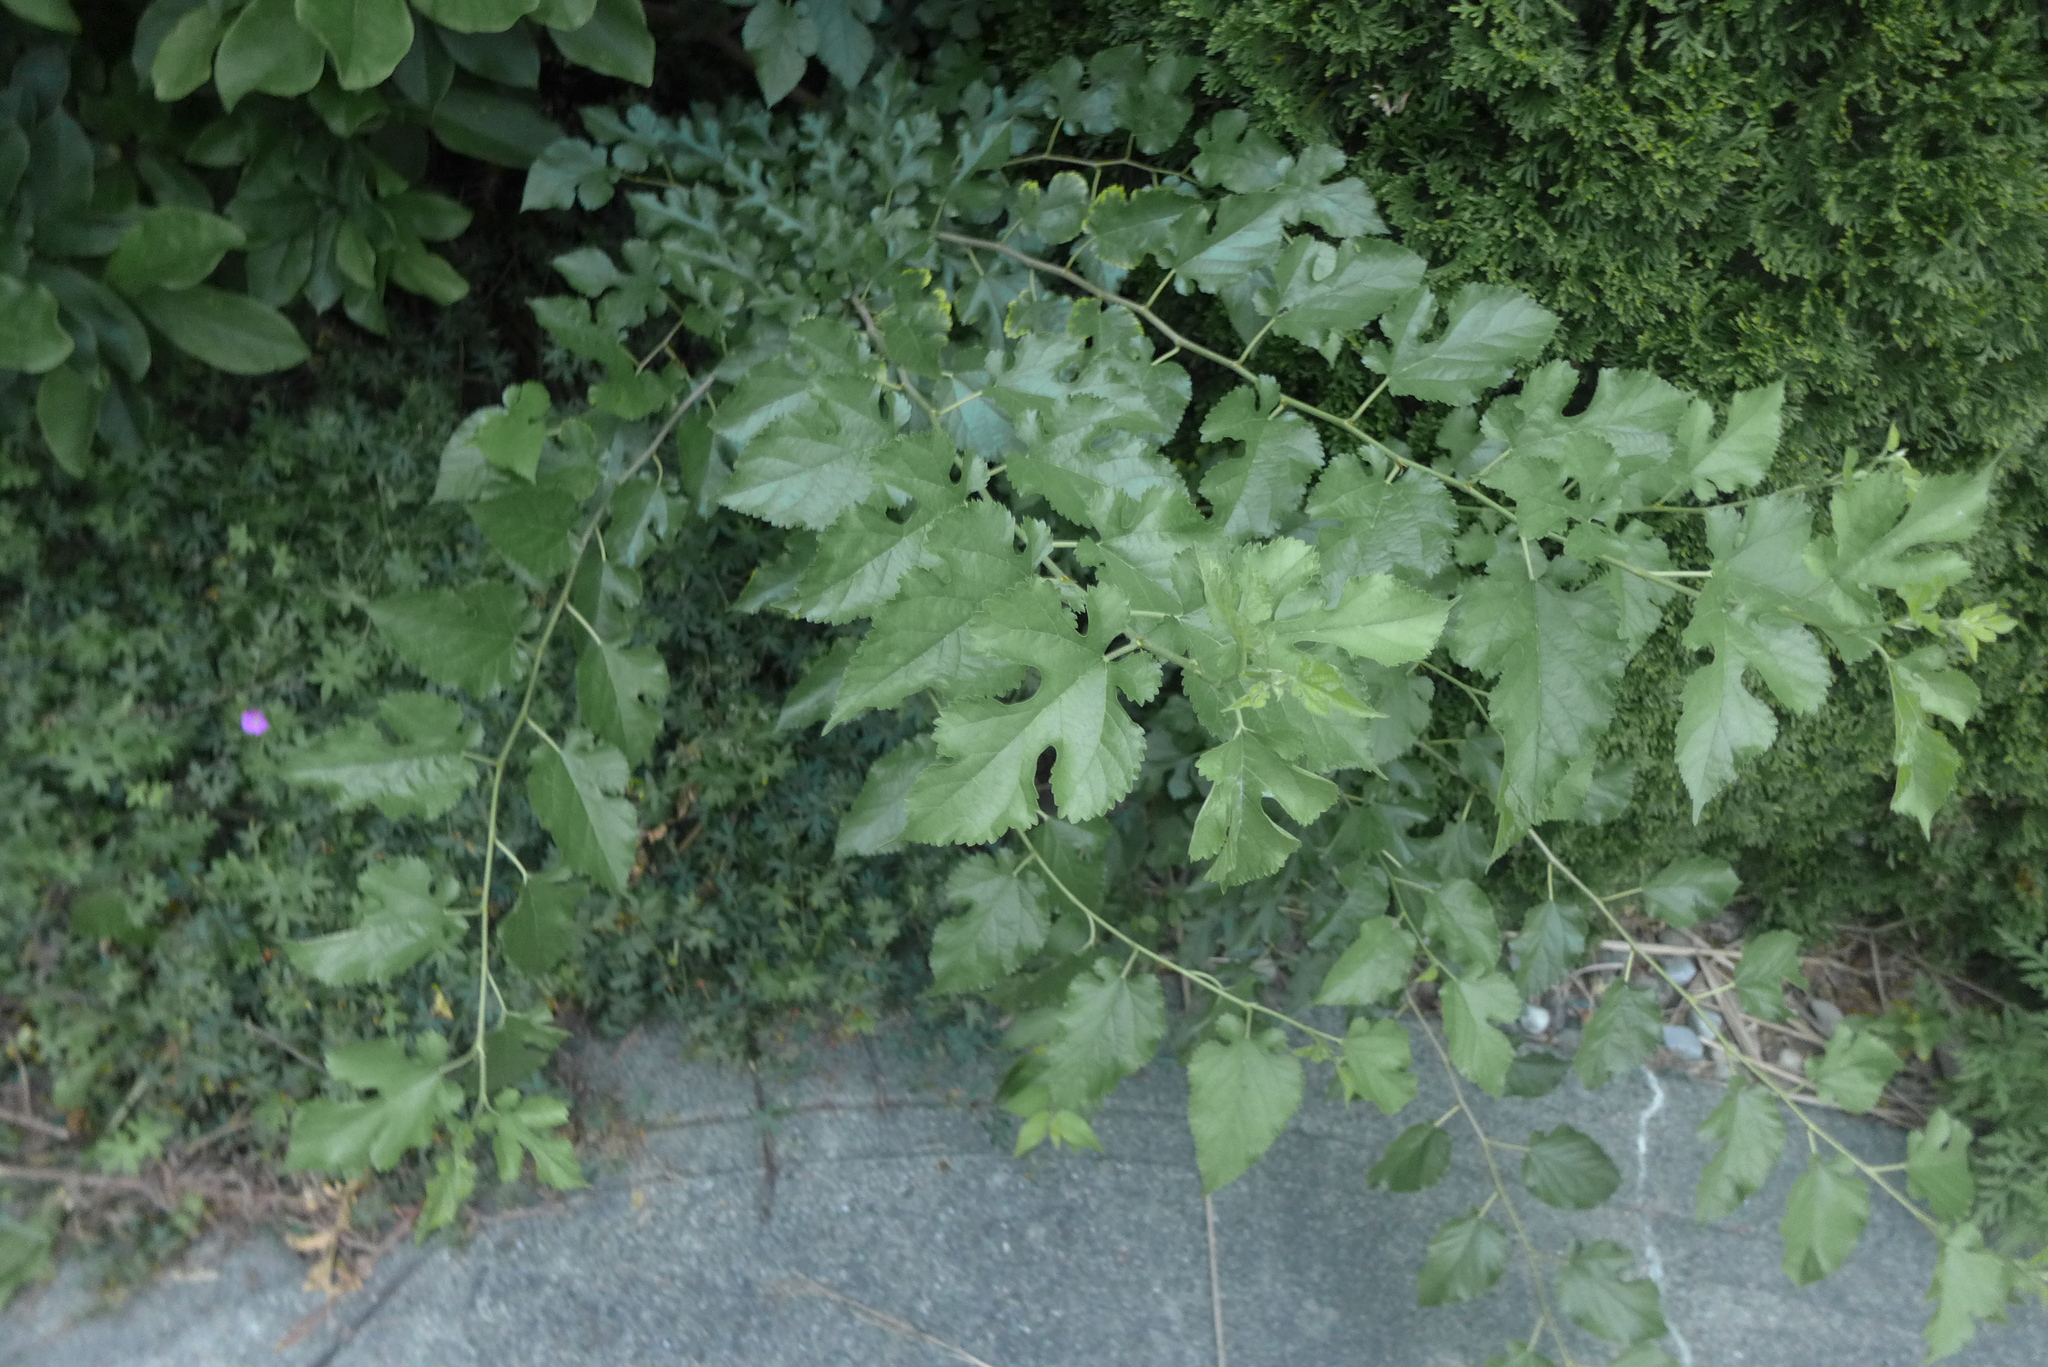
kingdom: Plantae
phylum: Tracheophyta
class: Magnoliopsida
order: Rosales
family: Moraceae
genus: Morus
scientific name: Morus alba
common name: White mulberry
